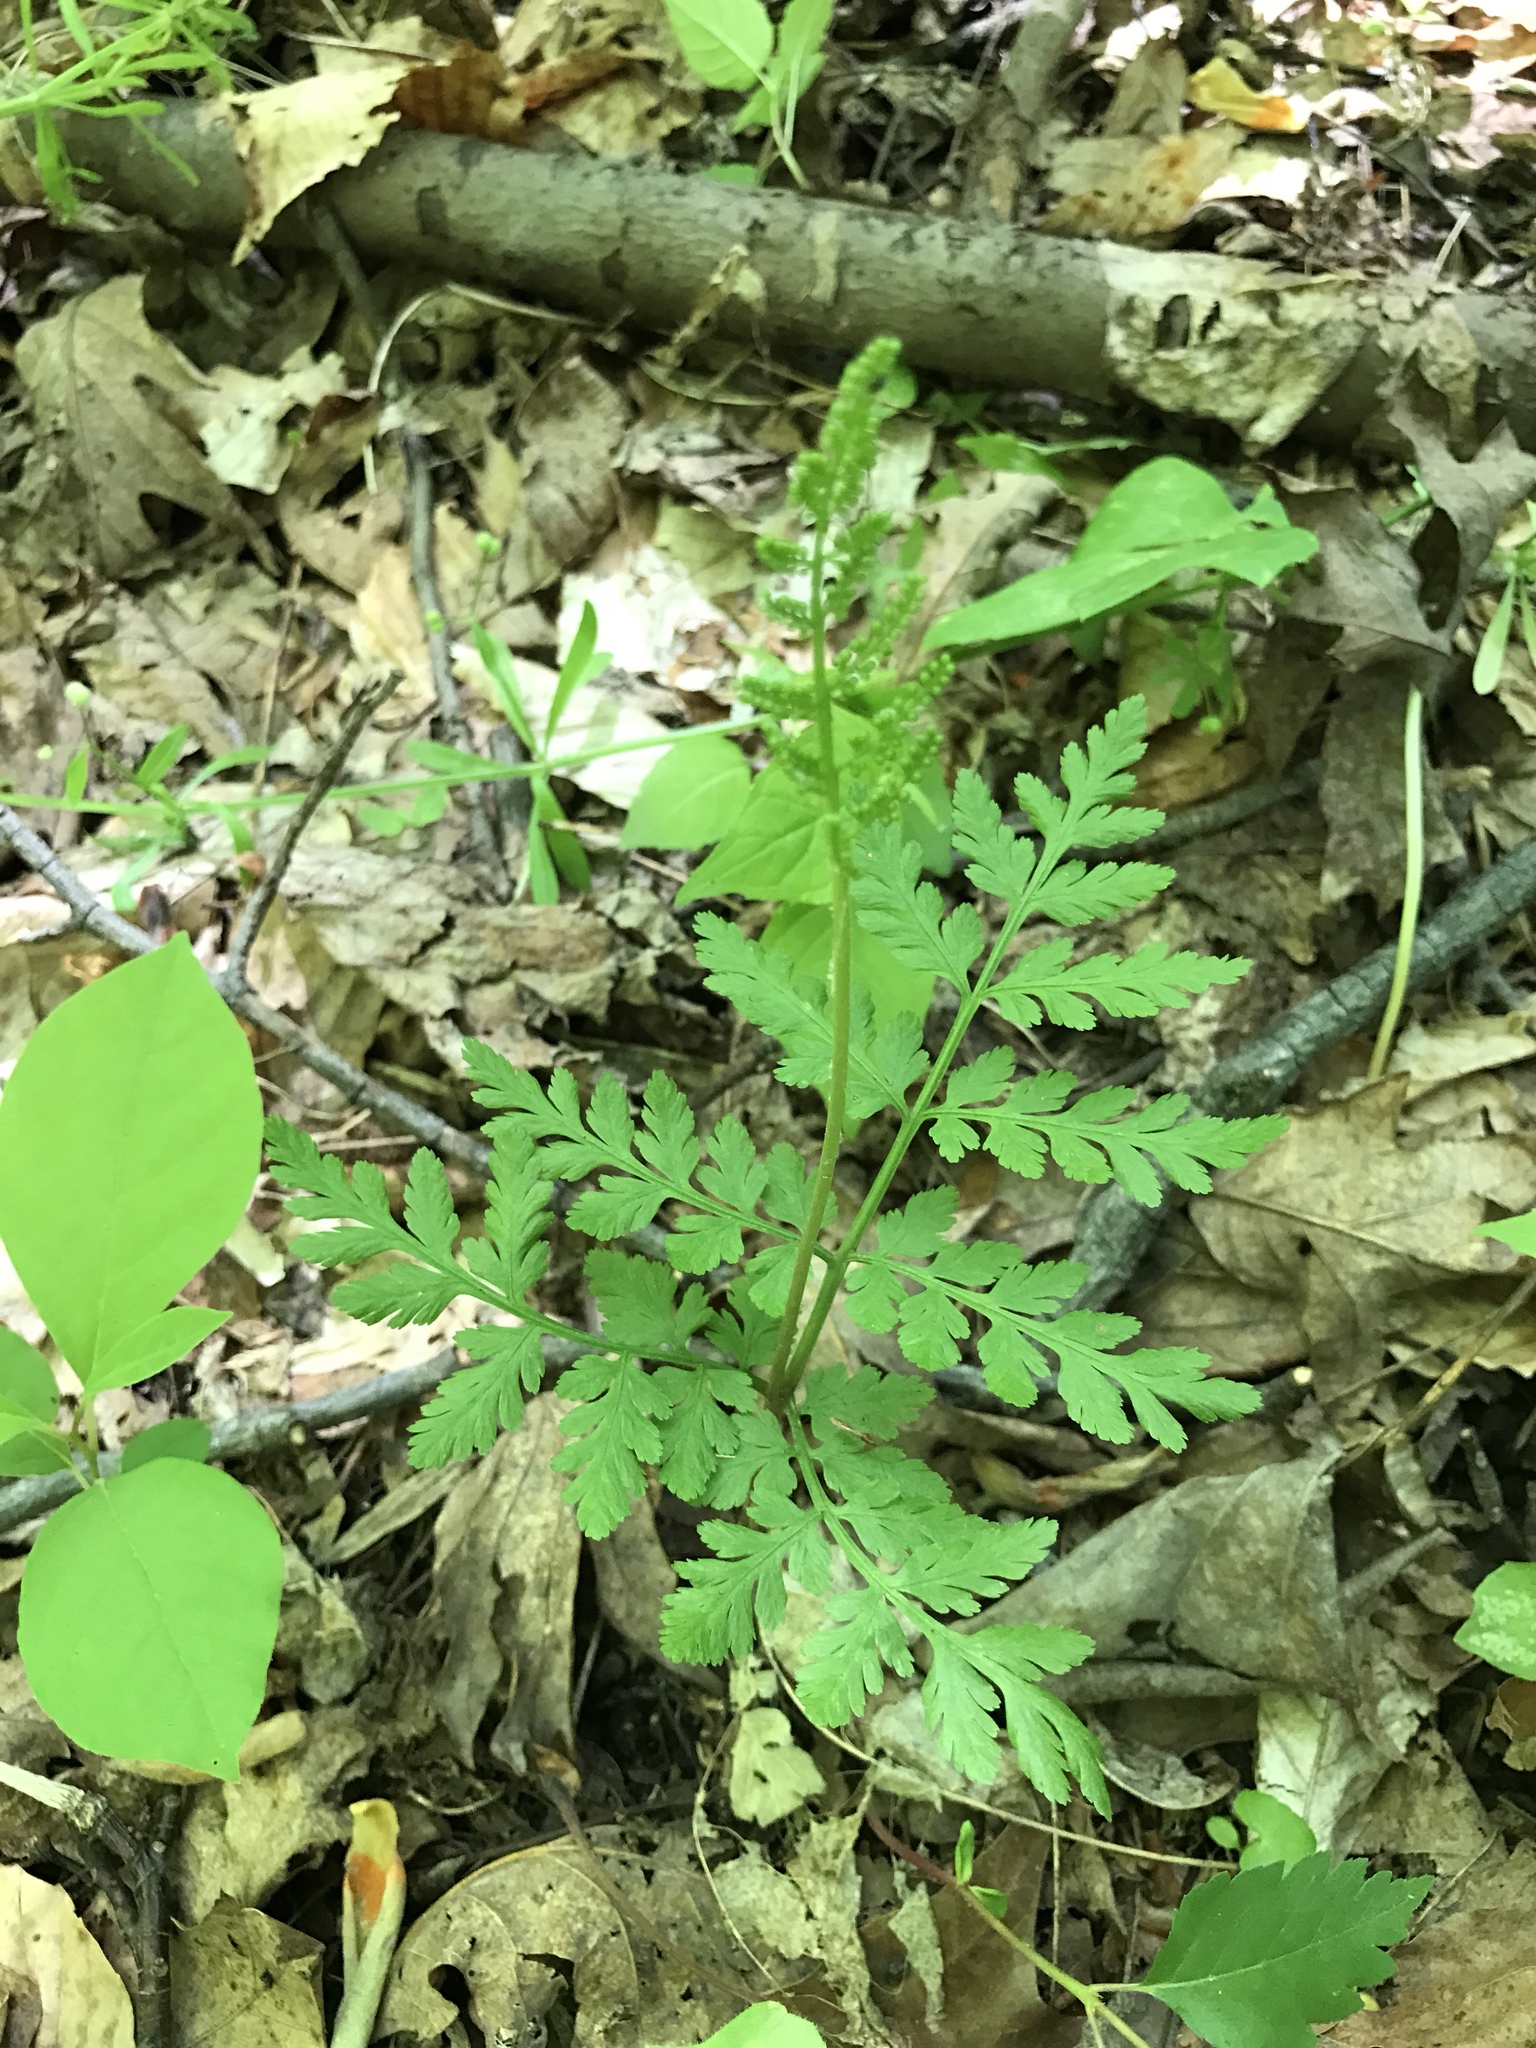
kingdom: Plantae
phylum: Tracheophyta
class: Polypodiopsida
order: Ophioglossales
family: Ophioglossaceae
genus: Botrypus
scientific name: Botrypus virginianus
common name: Common grapefern
